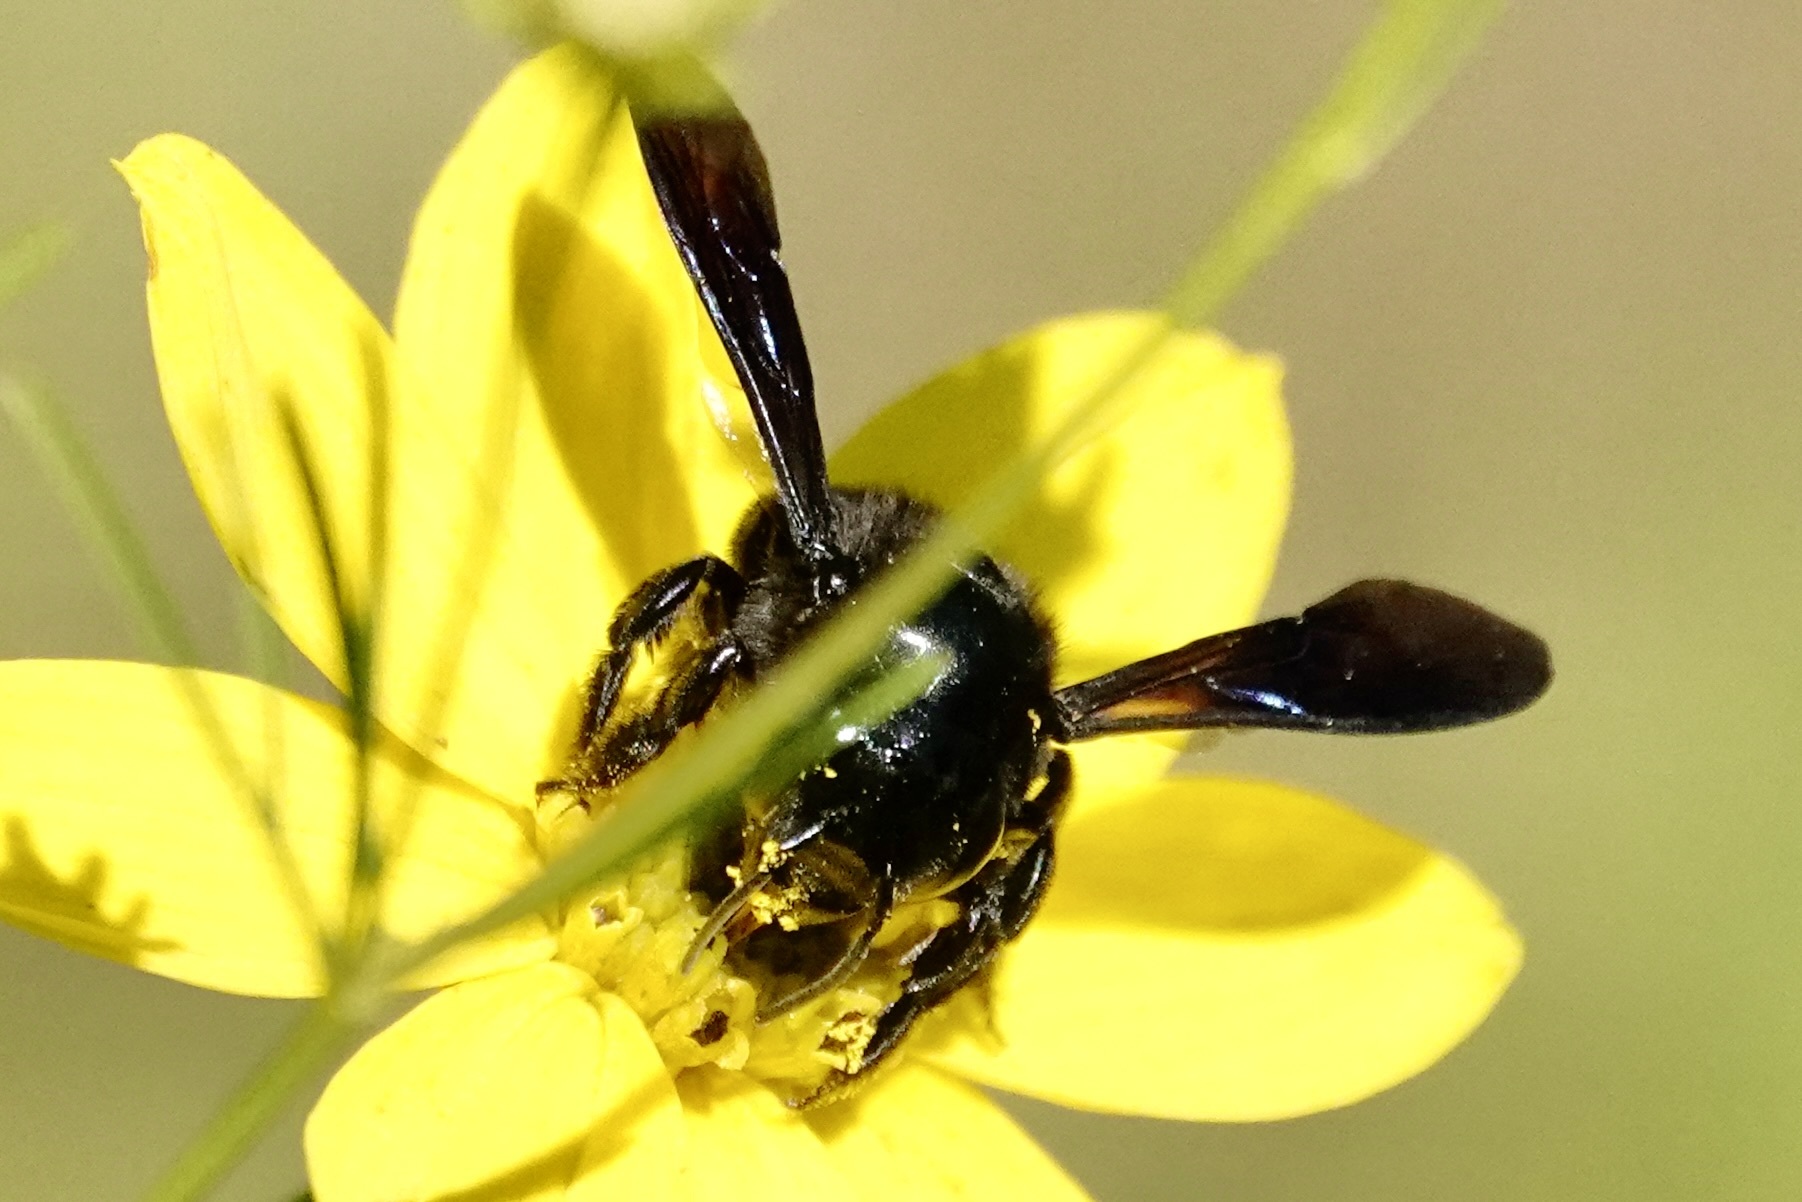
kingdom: Animalia
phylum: Arthropoda
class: Insecta
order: Hymenoptera
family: Megachilidae
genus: Megachile
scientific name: Megachile xylocopoides
